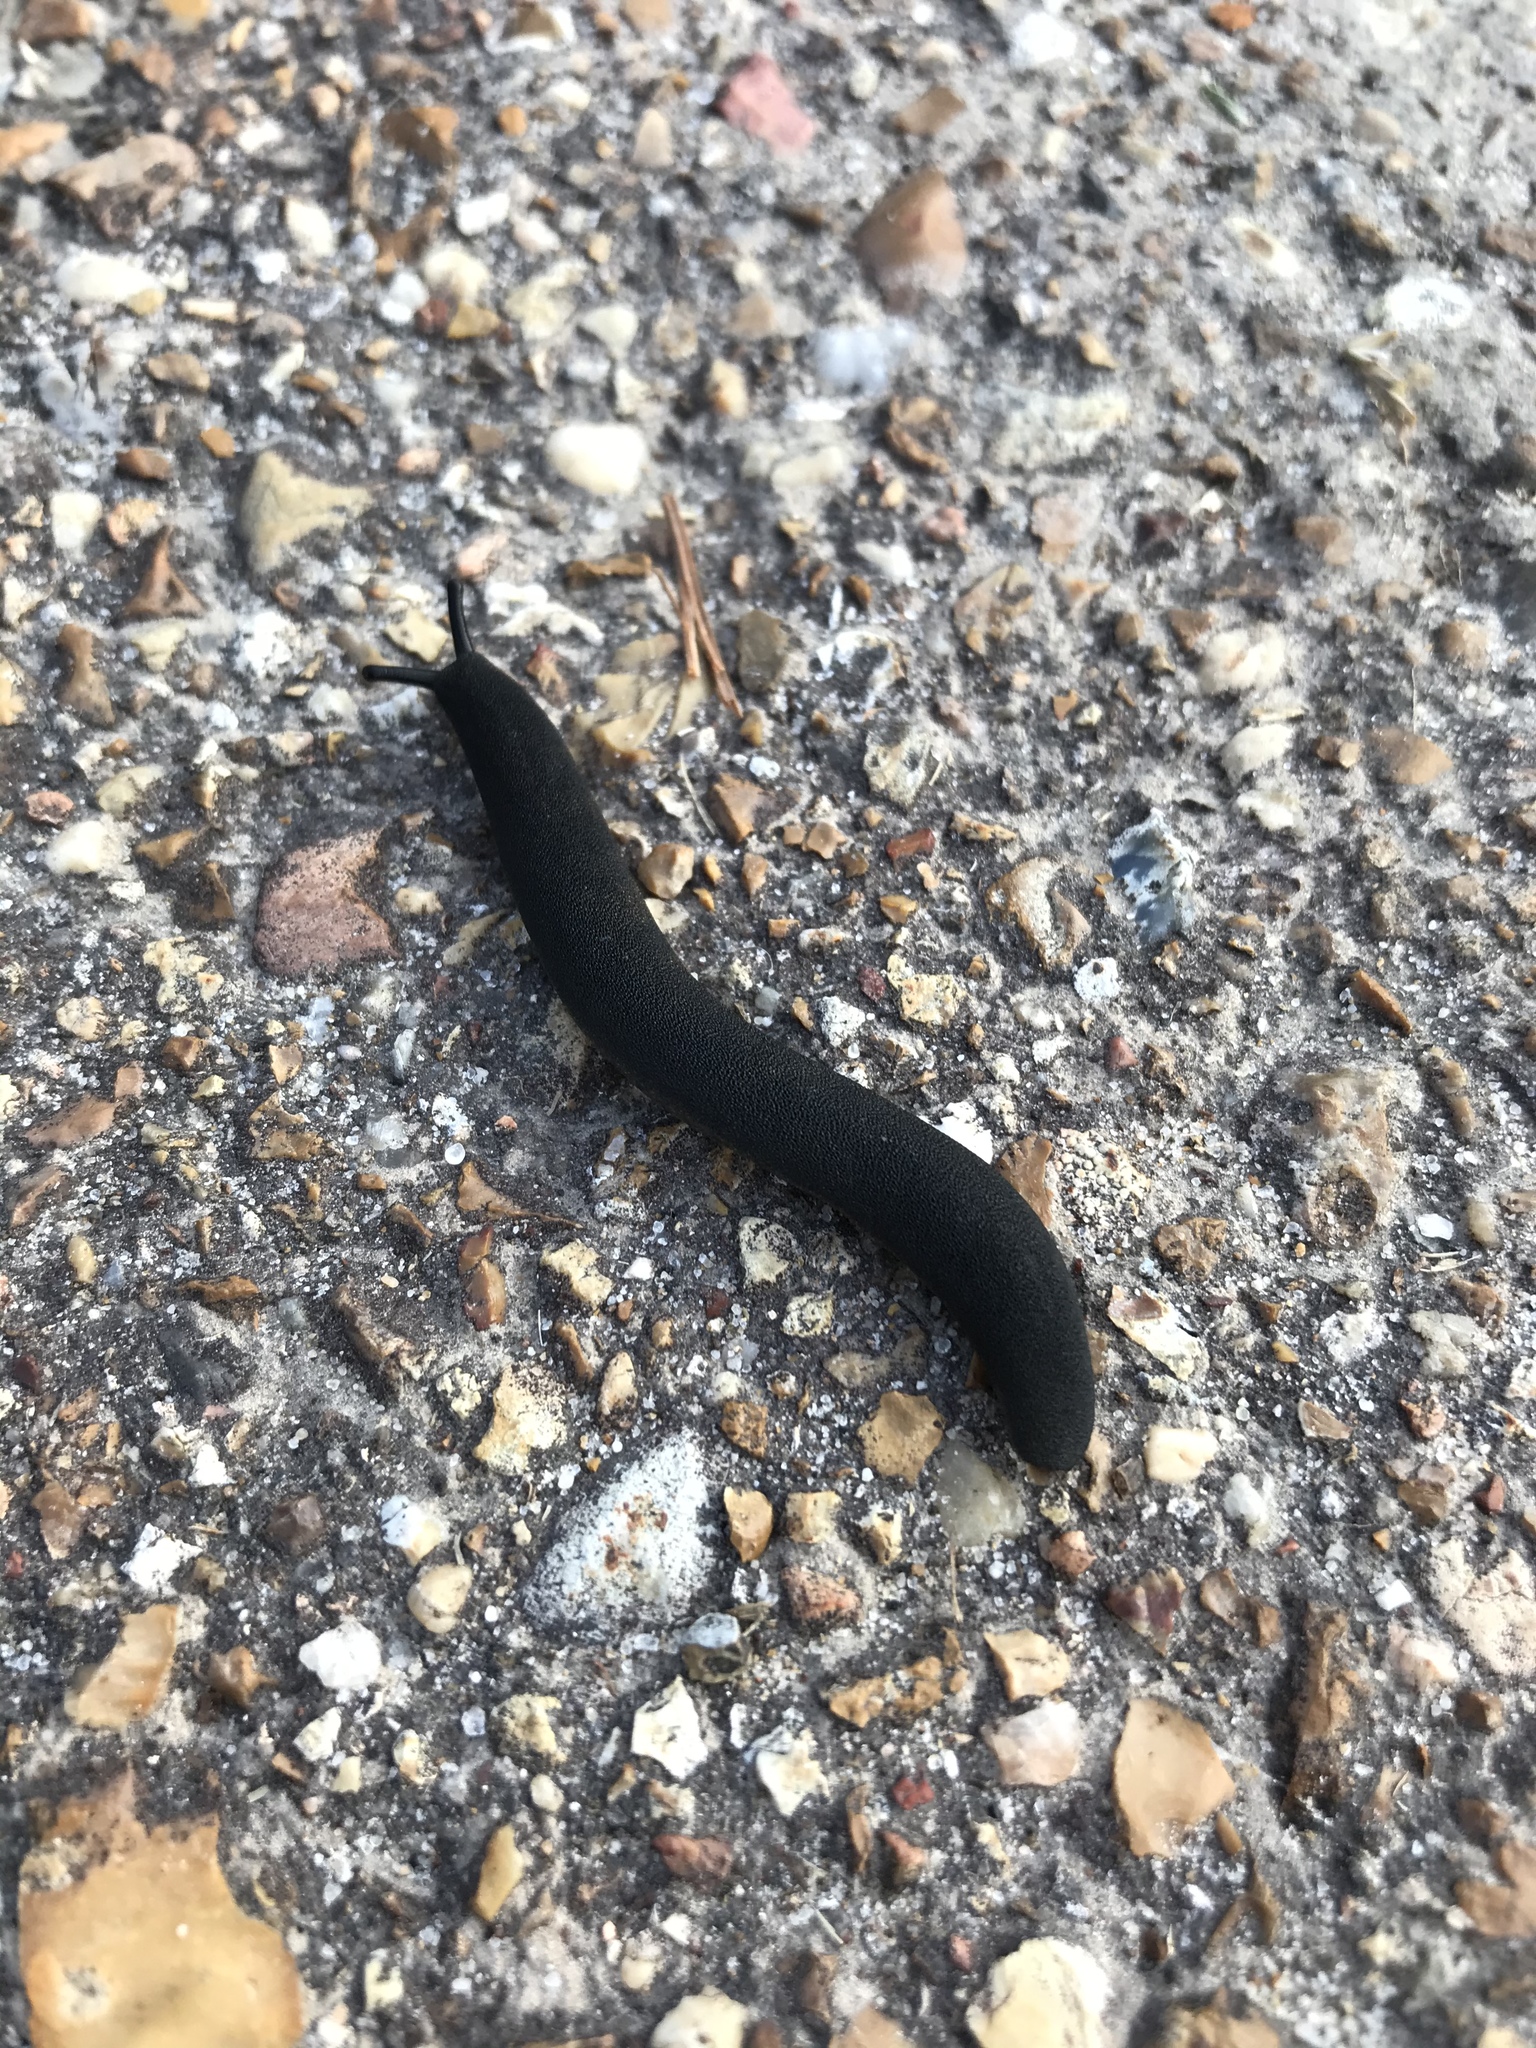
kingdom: Animalia
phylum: Mollusca
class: Gastropoda
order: Systellommatophora
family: Veronicellidae
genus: Belocaulus
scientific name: Belocaulus angustipes
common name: Black velvet leatherleaf slug
